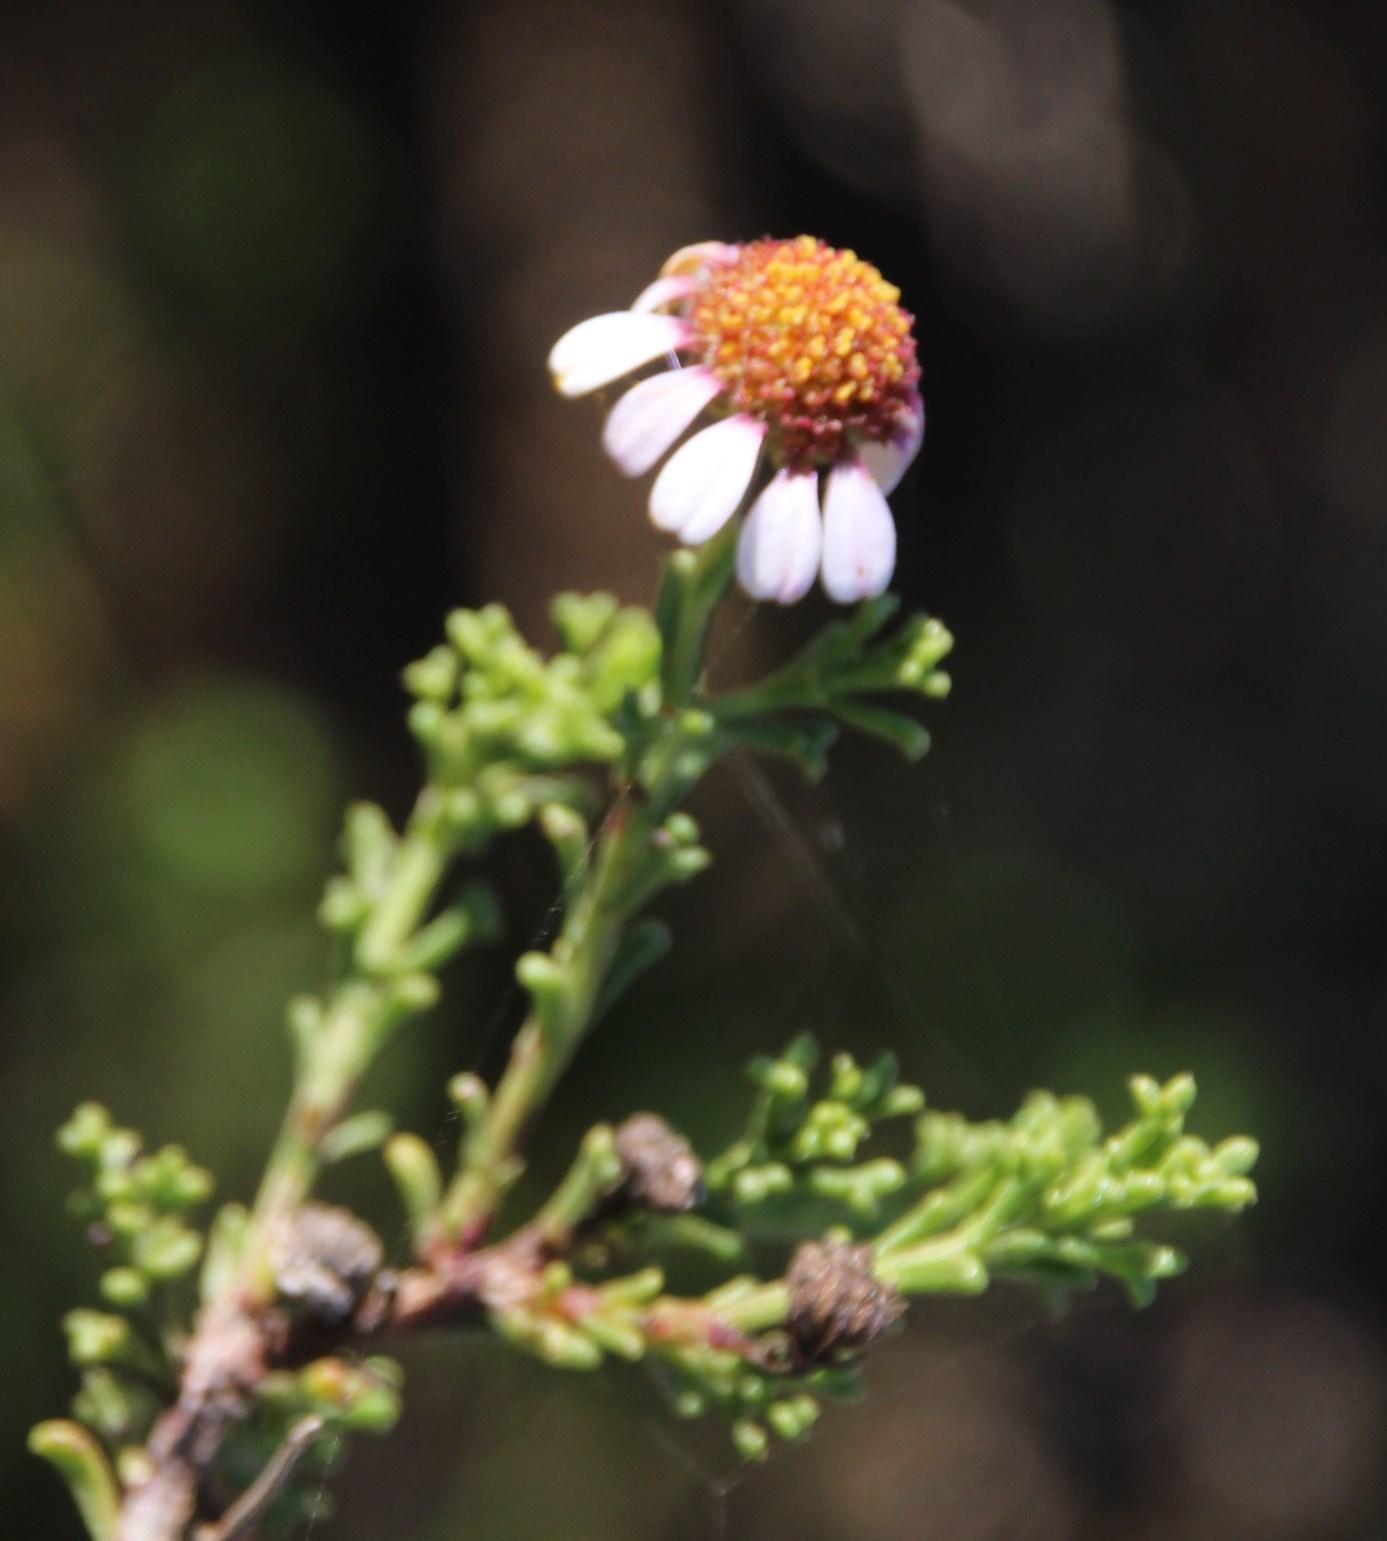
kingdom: Plantae
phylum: Tracheophyta
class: Magnoliopsida
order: Asterales
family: Asteraceae
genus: Cymbopappus
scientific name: Cymbopappus adenosolen
